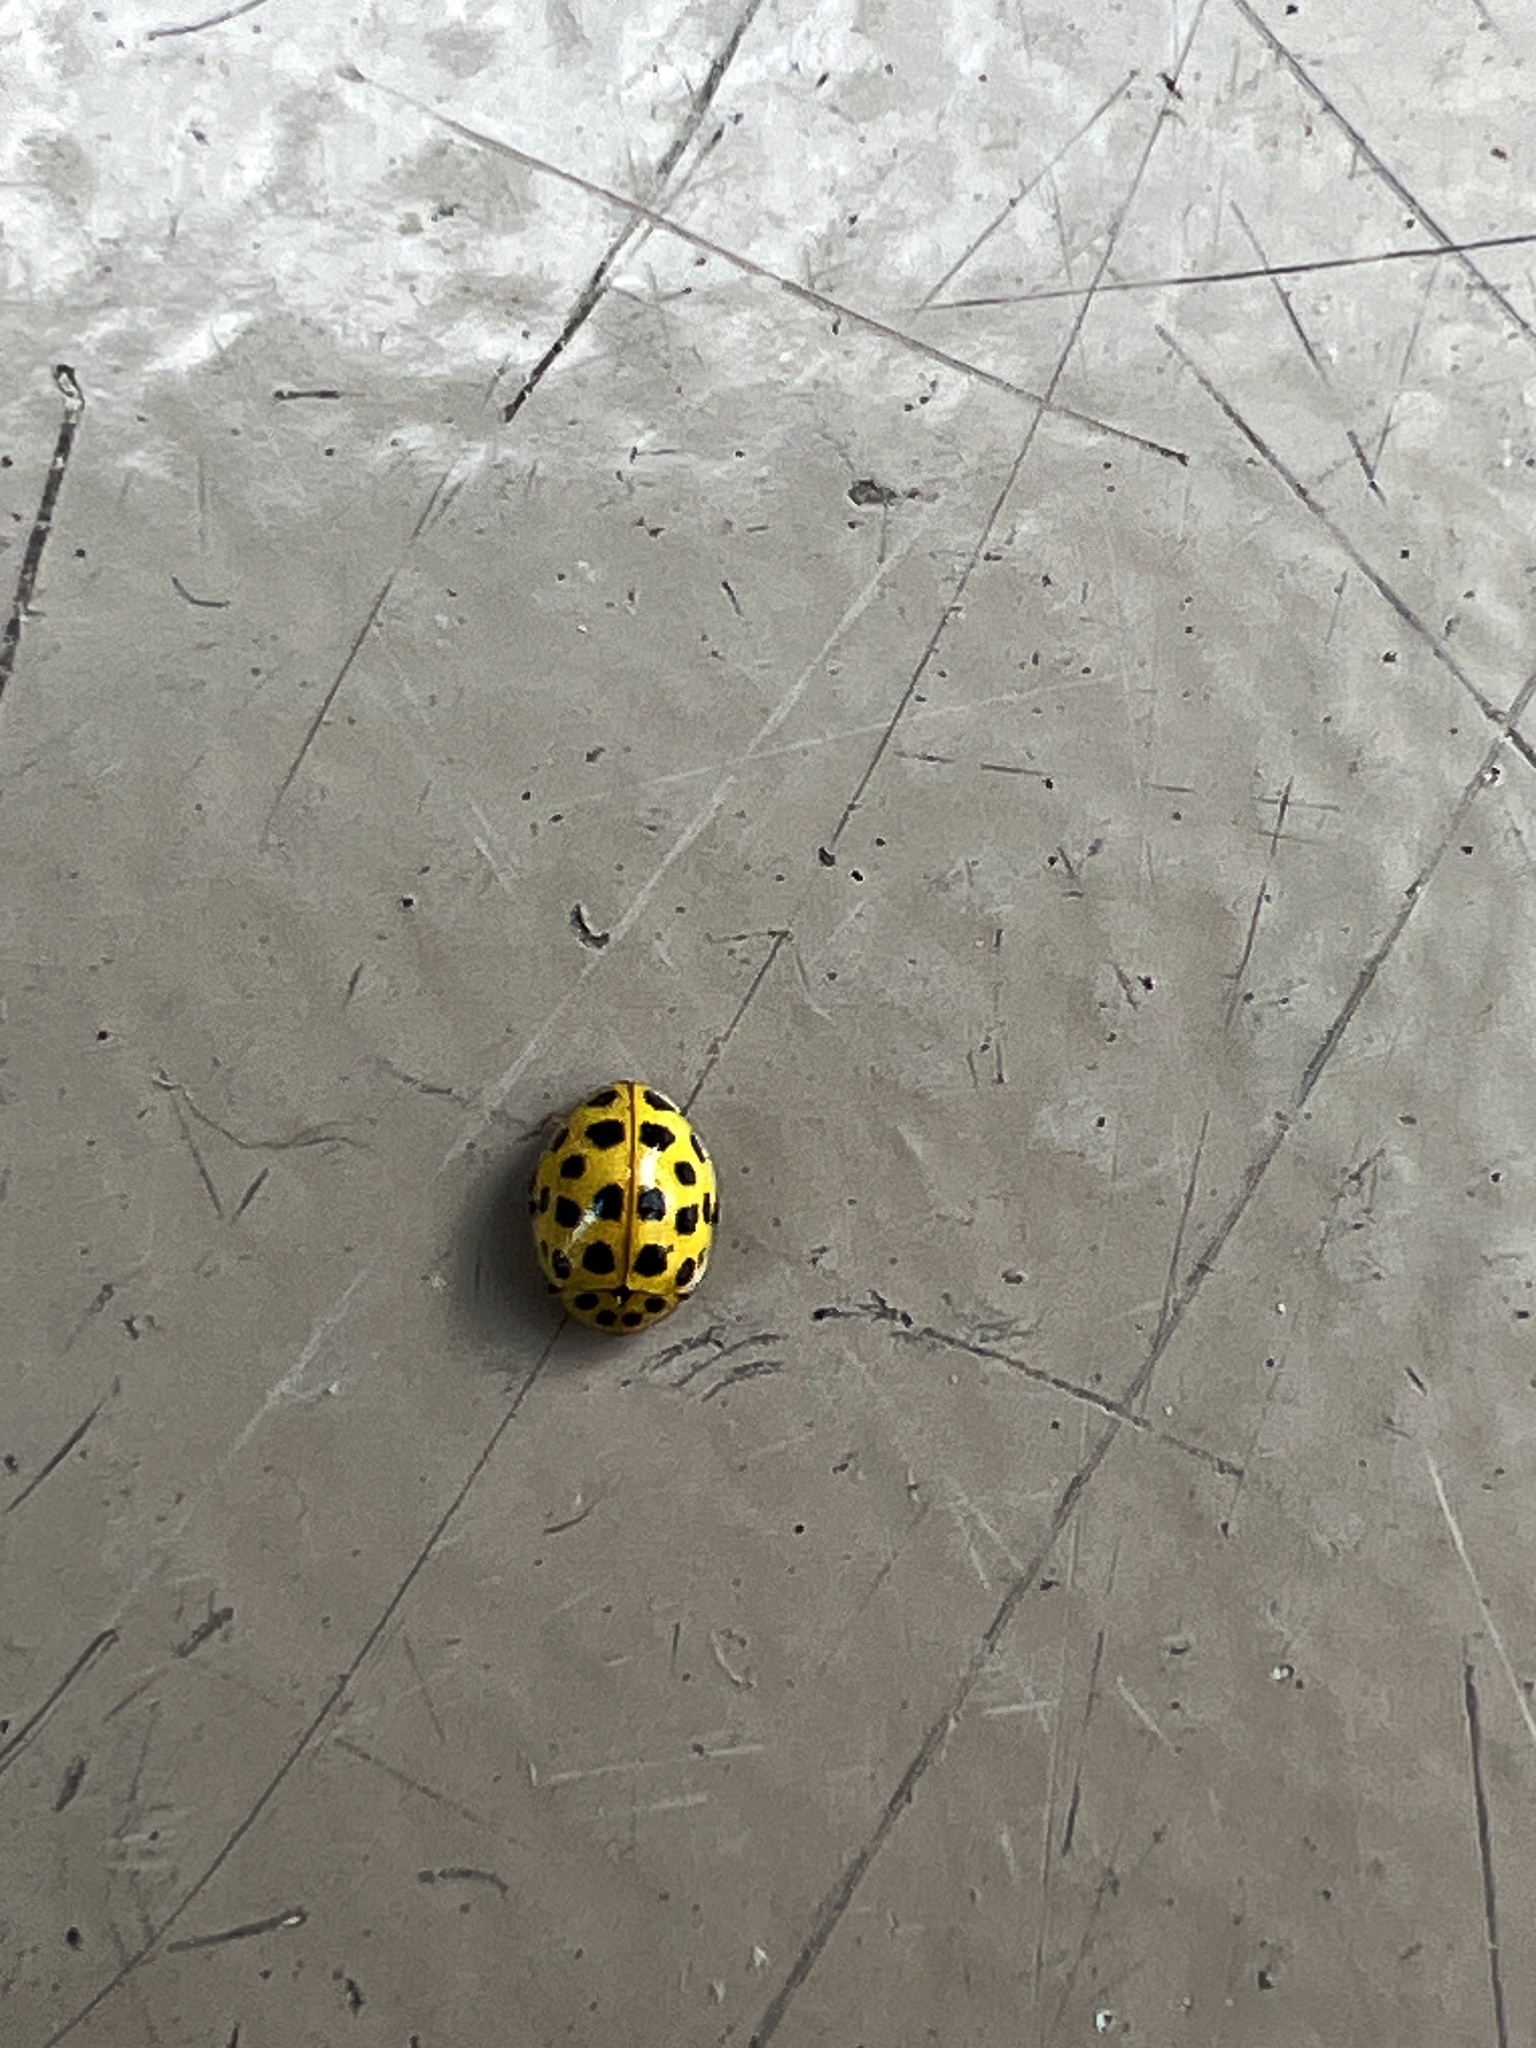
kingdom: Animalia
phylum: Arthropoda
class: Insecta
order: Coleoptera
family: Coccinellidae
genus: Psyllobora
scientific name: Psyllobora vigintiduopunctata
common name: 22-spot ladybird
